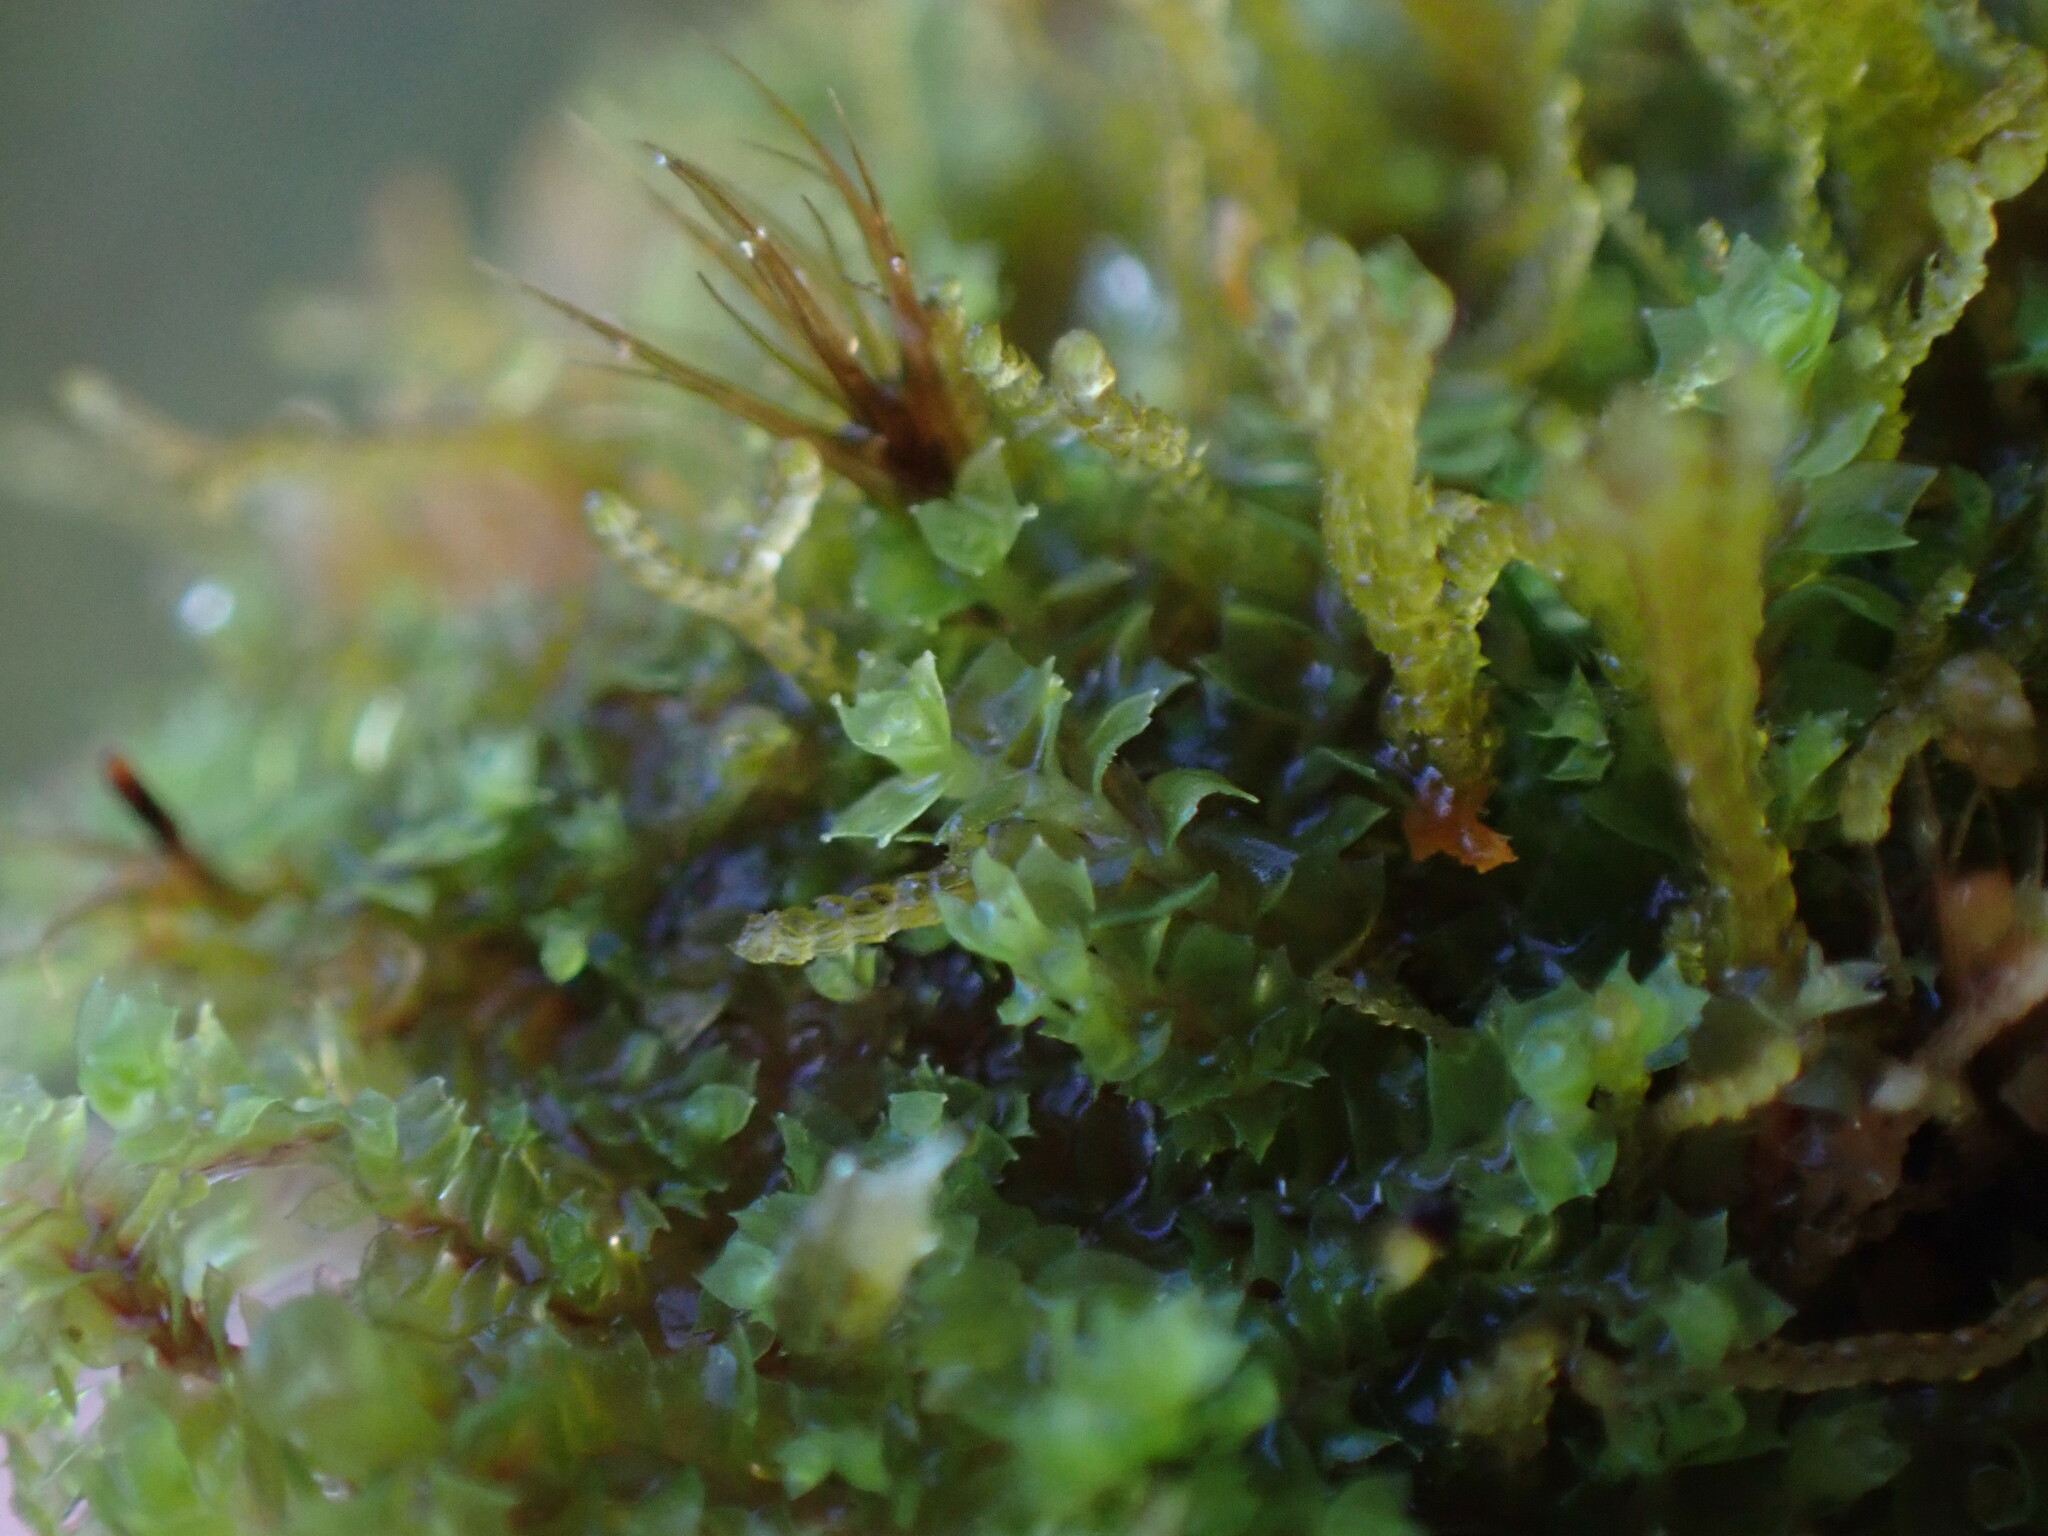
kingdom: Plantae
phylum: Marchantiophyta
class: Jungermanniopsida
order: Jungermanniales
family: Lophoziaceae
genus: Lophozia
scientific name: Lophozia ventricosa
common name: Tumid notchwort
